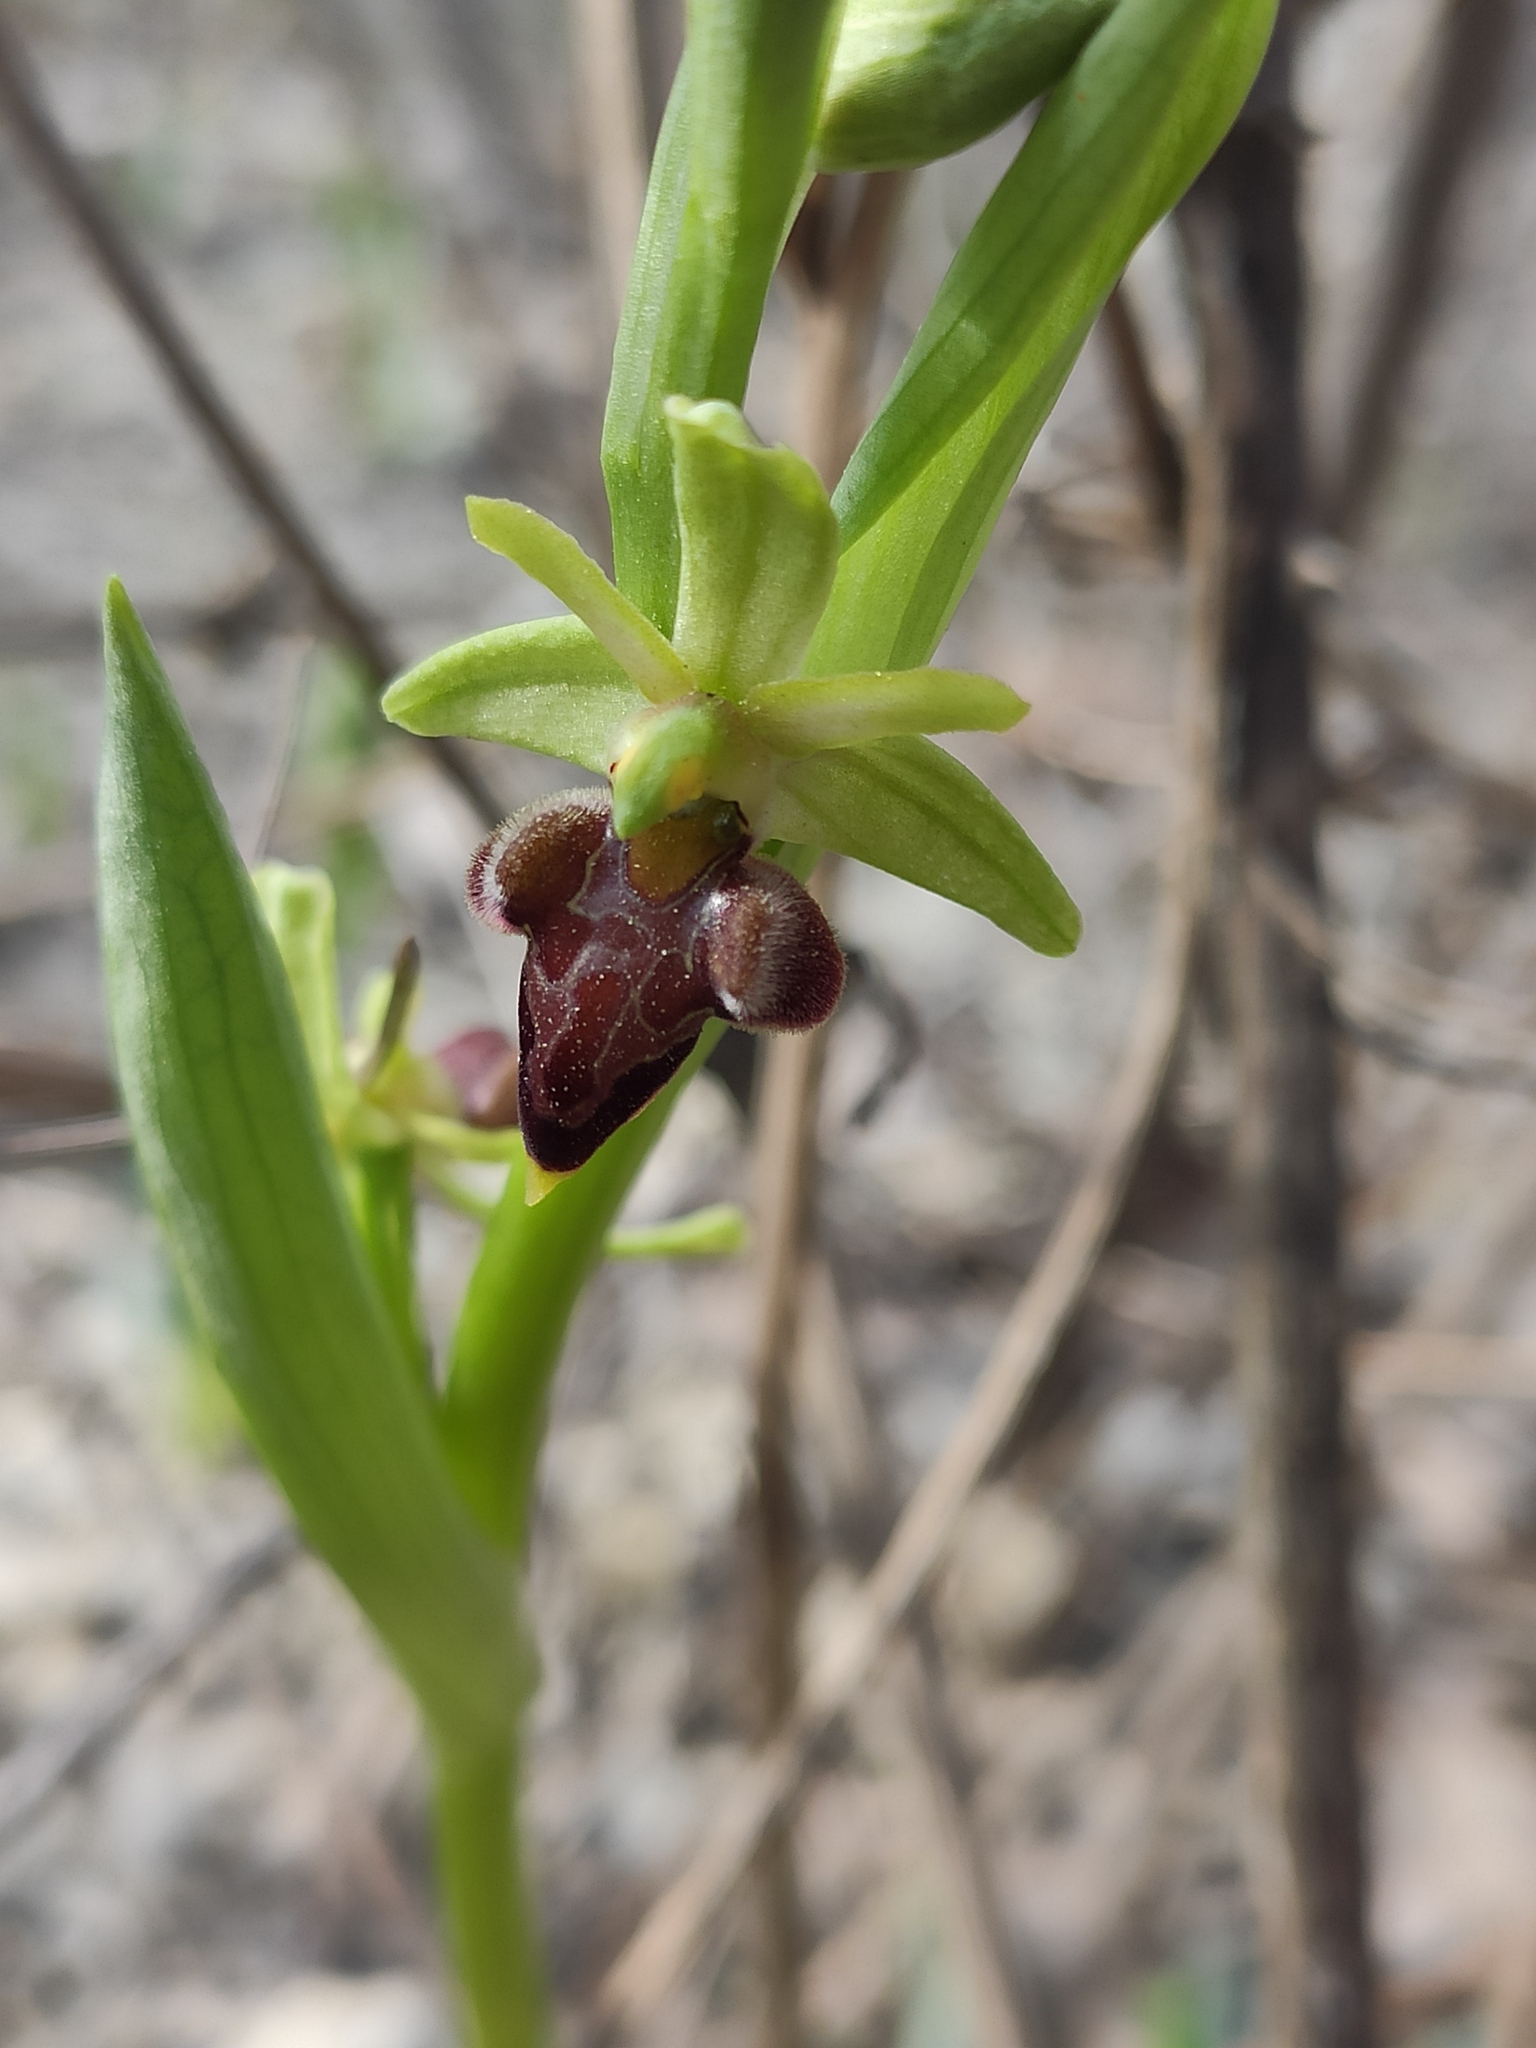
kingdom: Plantae
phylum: Tracheophyta
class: Liliopsida
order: Asparagales
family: Orchidaceae
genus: Ophrys
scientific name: Ophrys sphegodes
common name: Early spider-orchid
